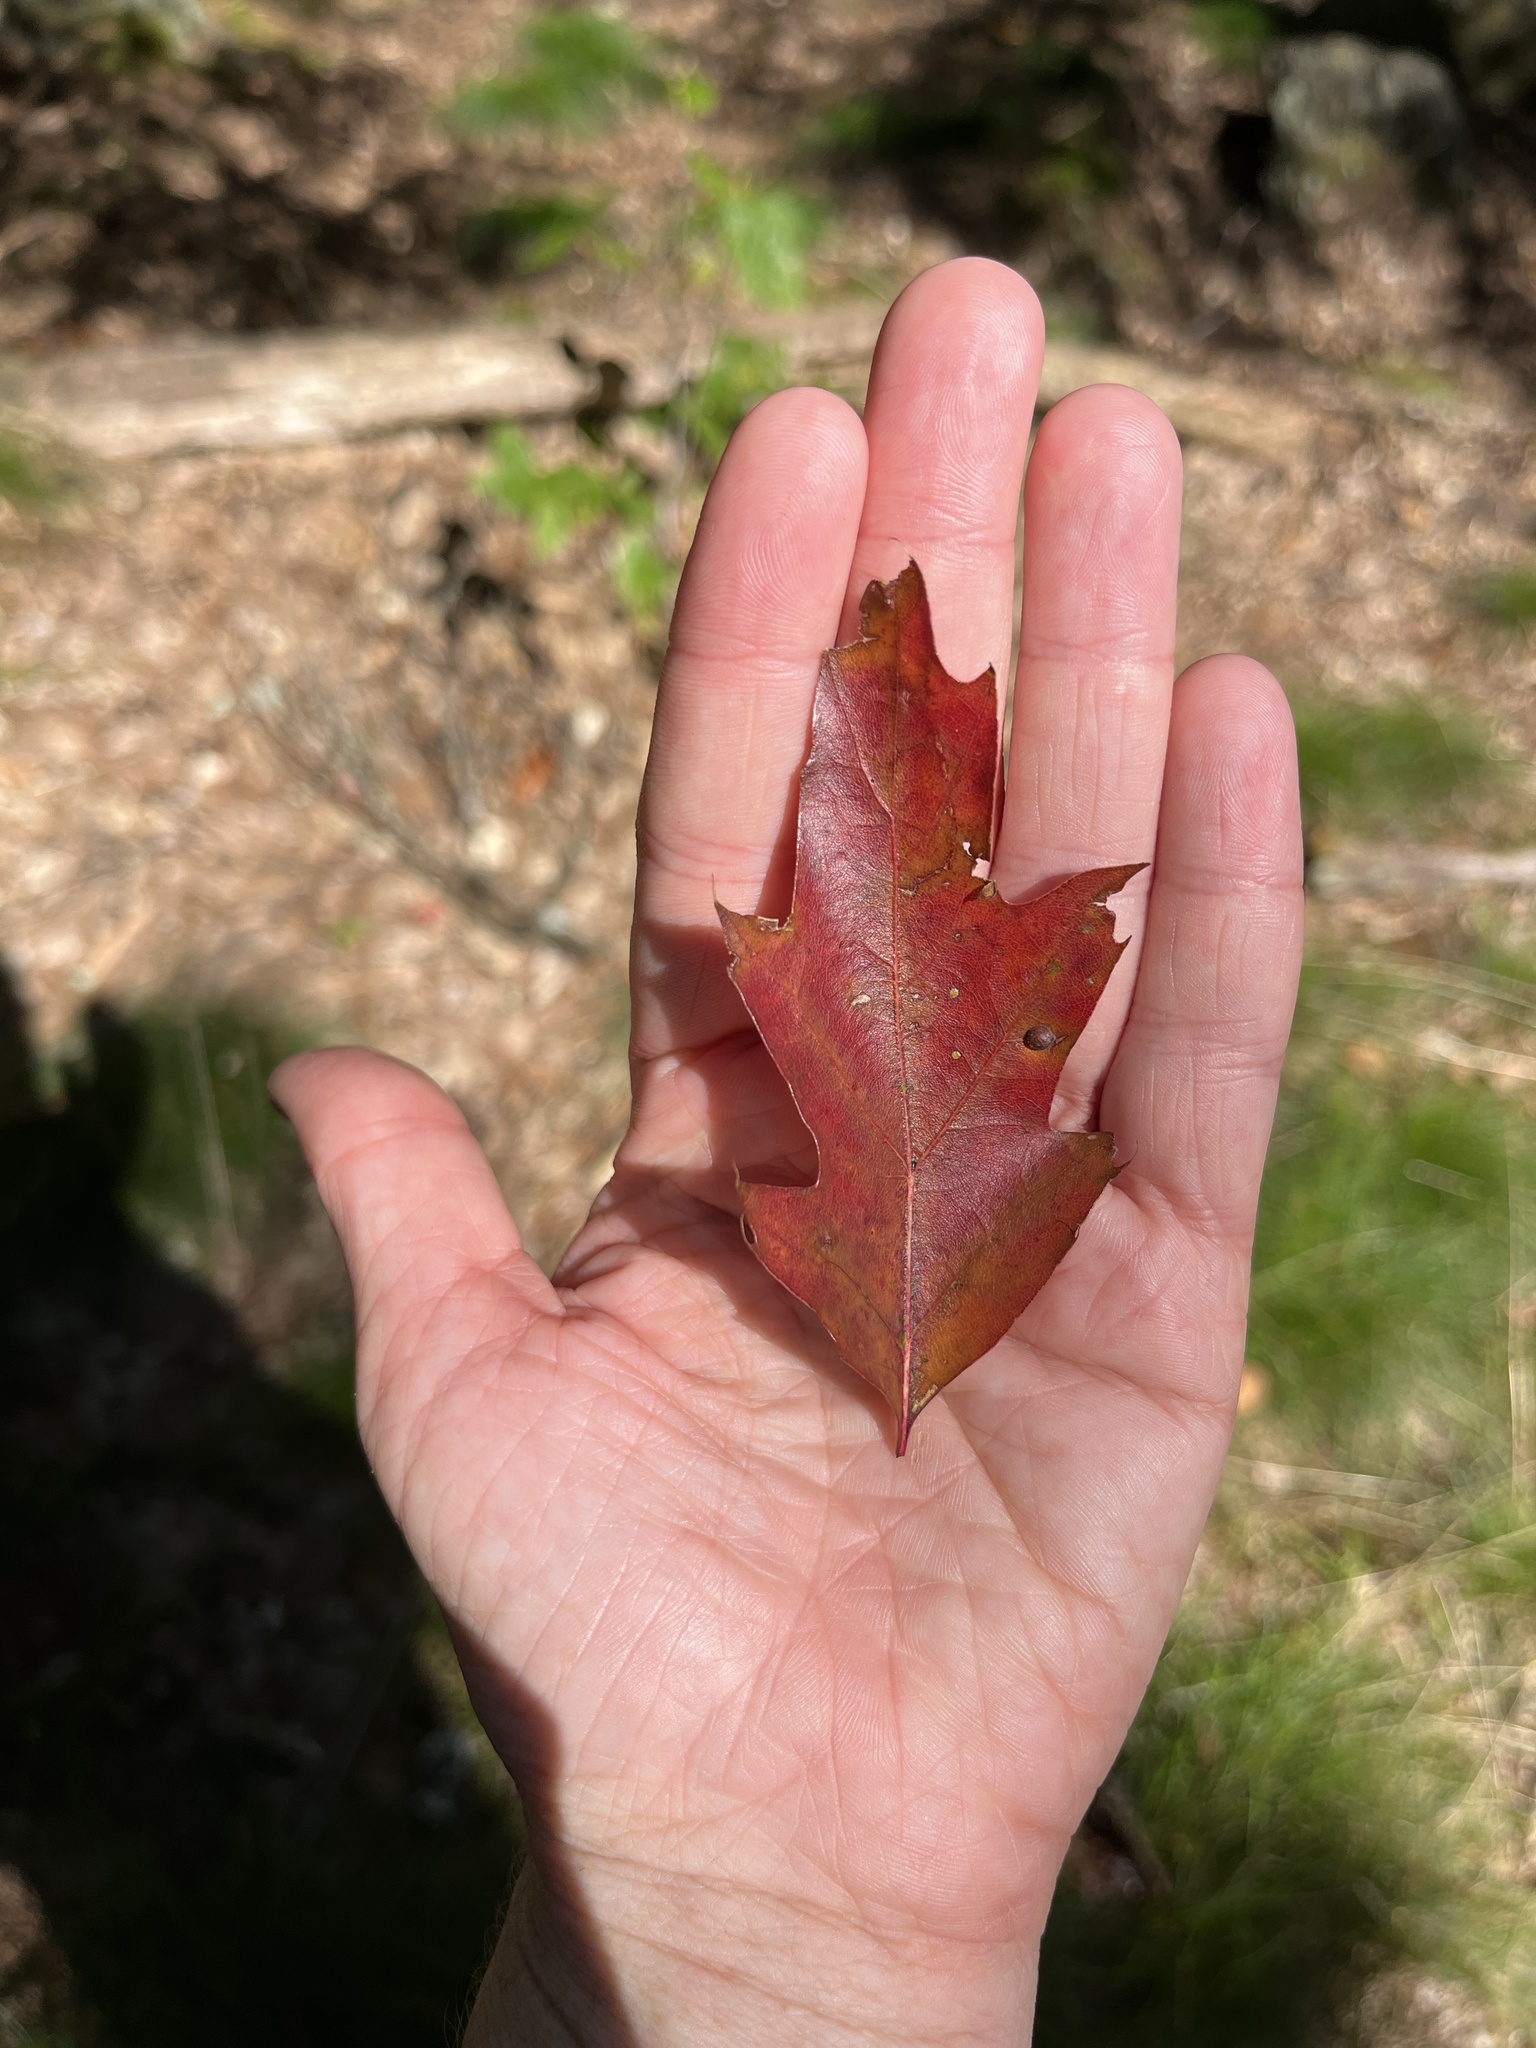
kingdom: Plantae
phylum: Tracheophyta
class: Magnoliopsida
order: Fagales
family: Fagaceae
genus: Quercus
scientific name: Quercus rubra
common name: Red oak
